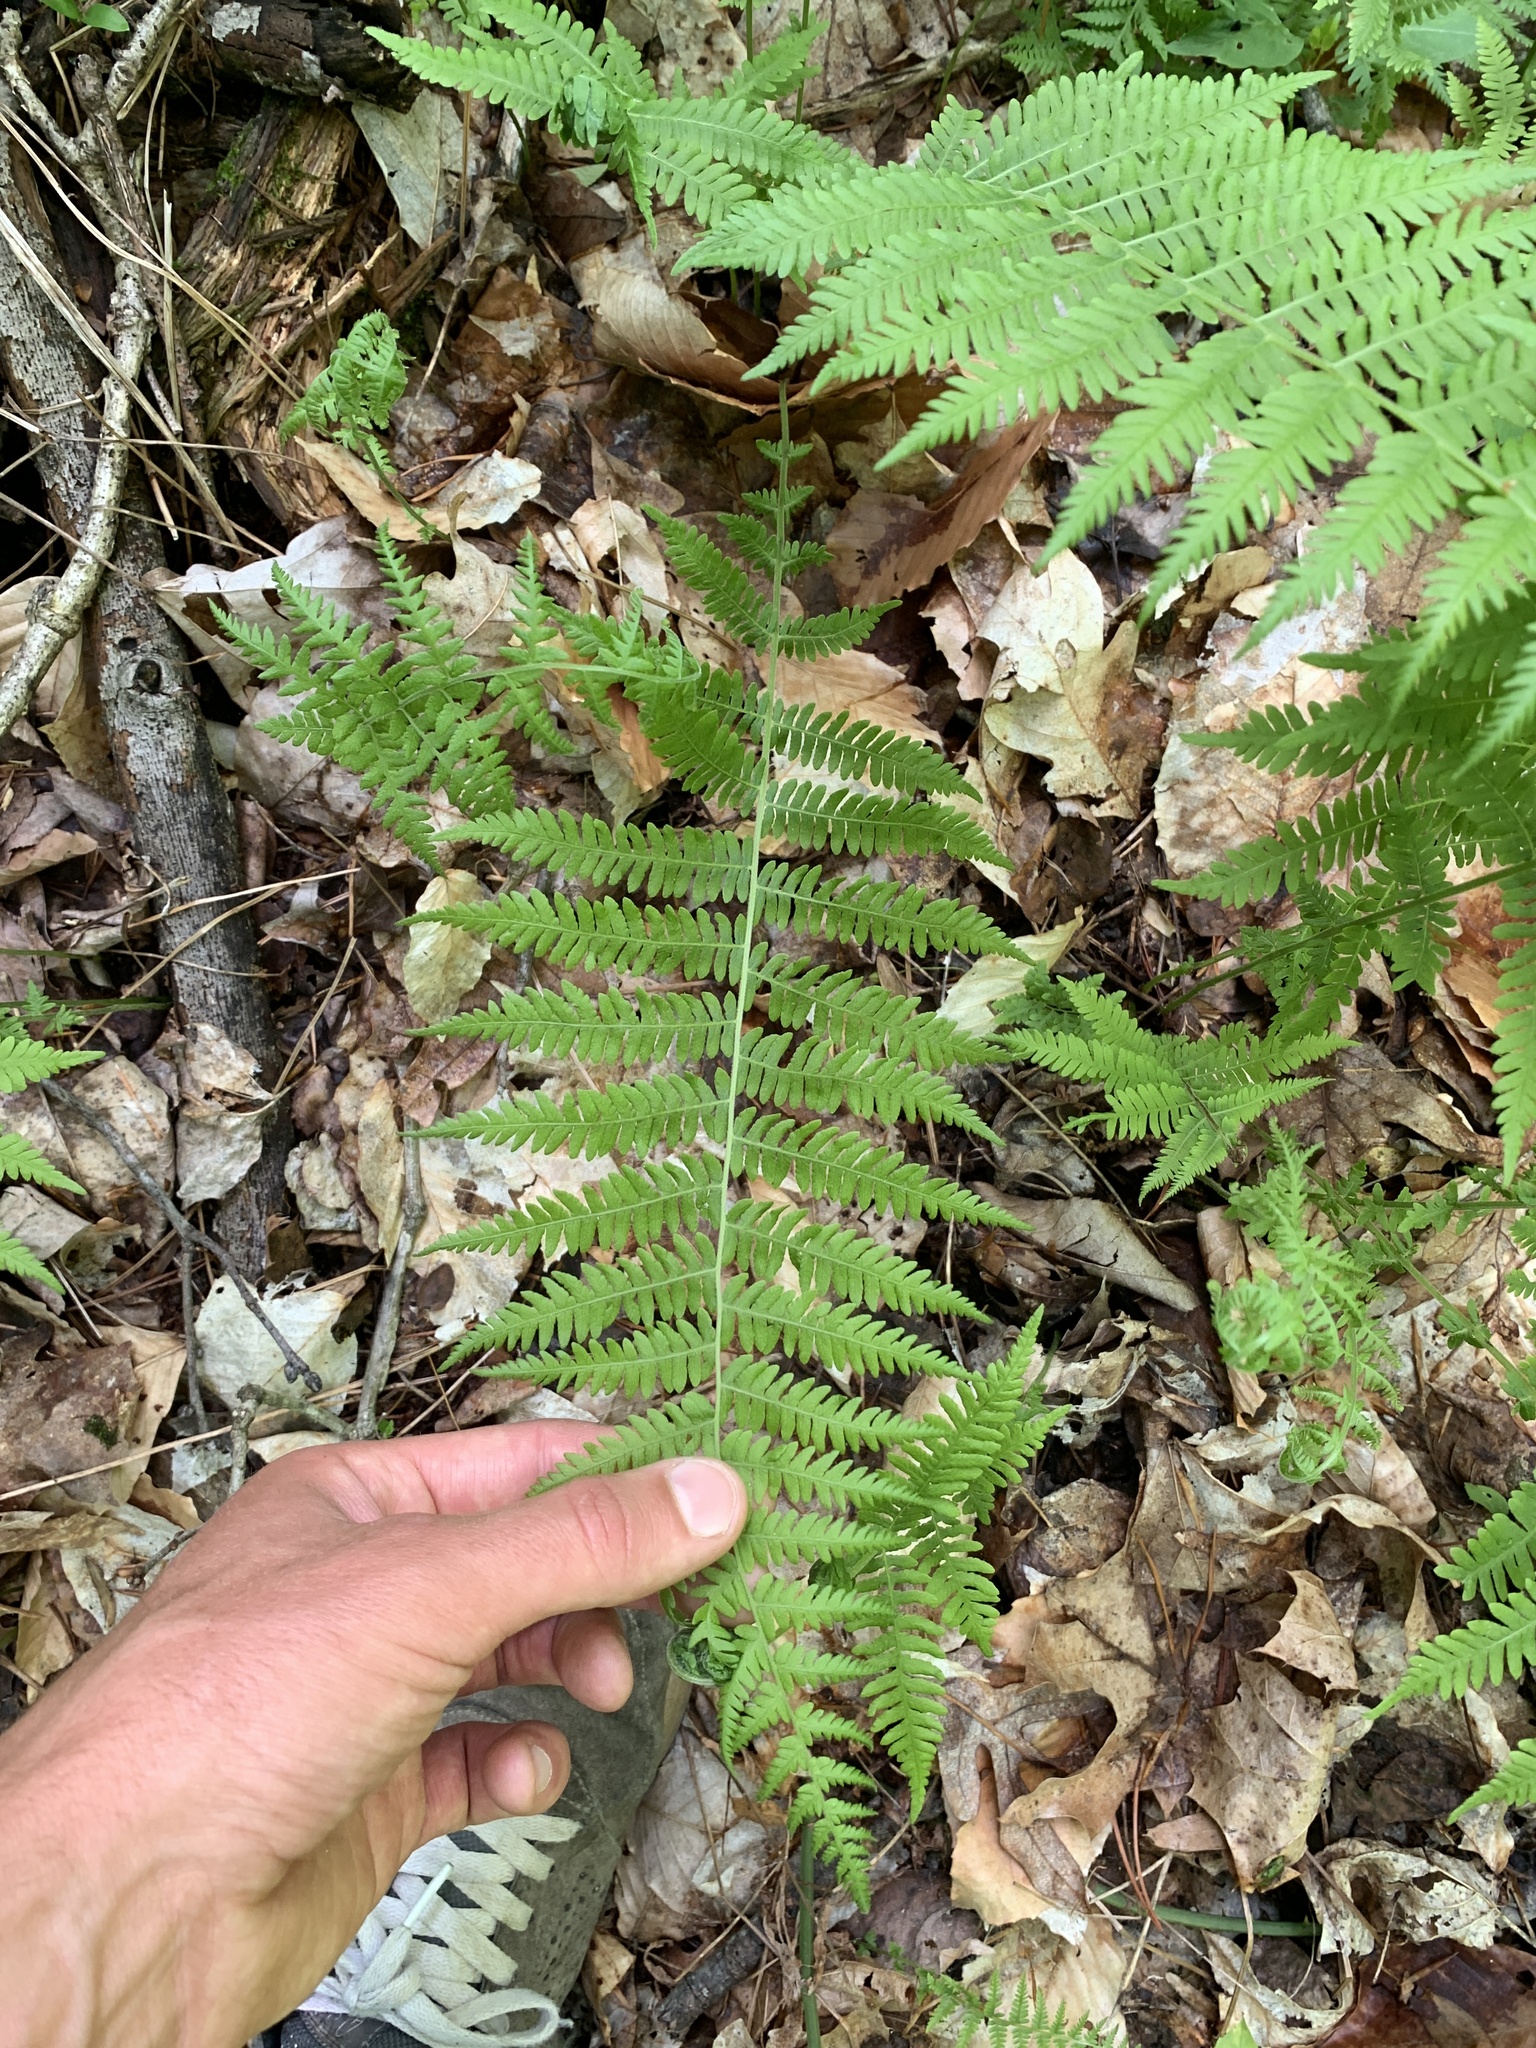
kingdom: Plantae
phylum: Tracheophyta
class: Polypodiopsida
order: Polypodiales
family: Thelypteridaceae
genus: Amauropelta
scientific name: Amauropelta noveboracensis
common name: New york fern
